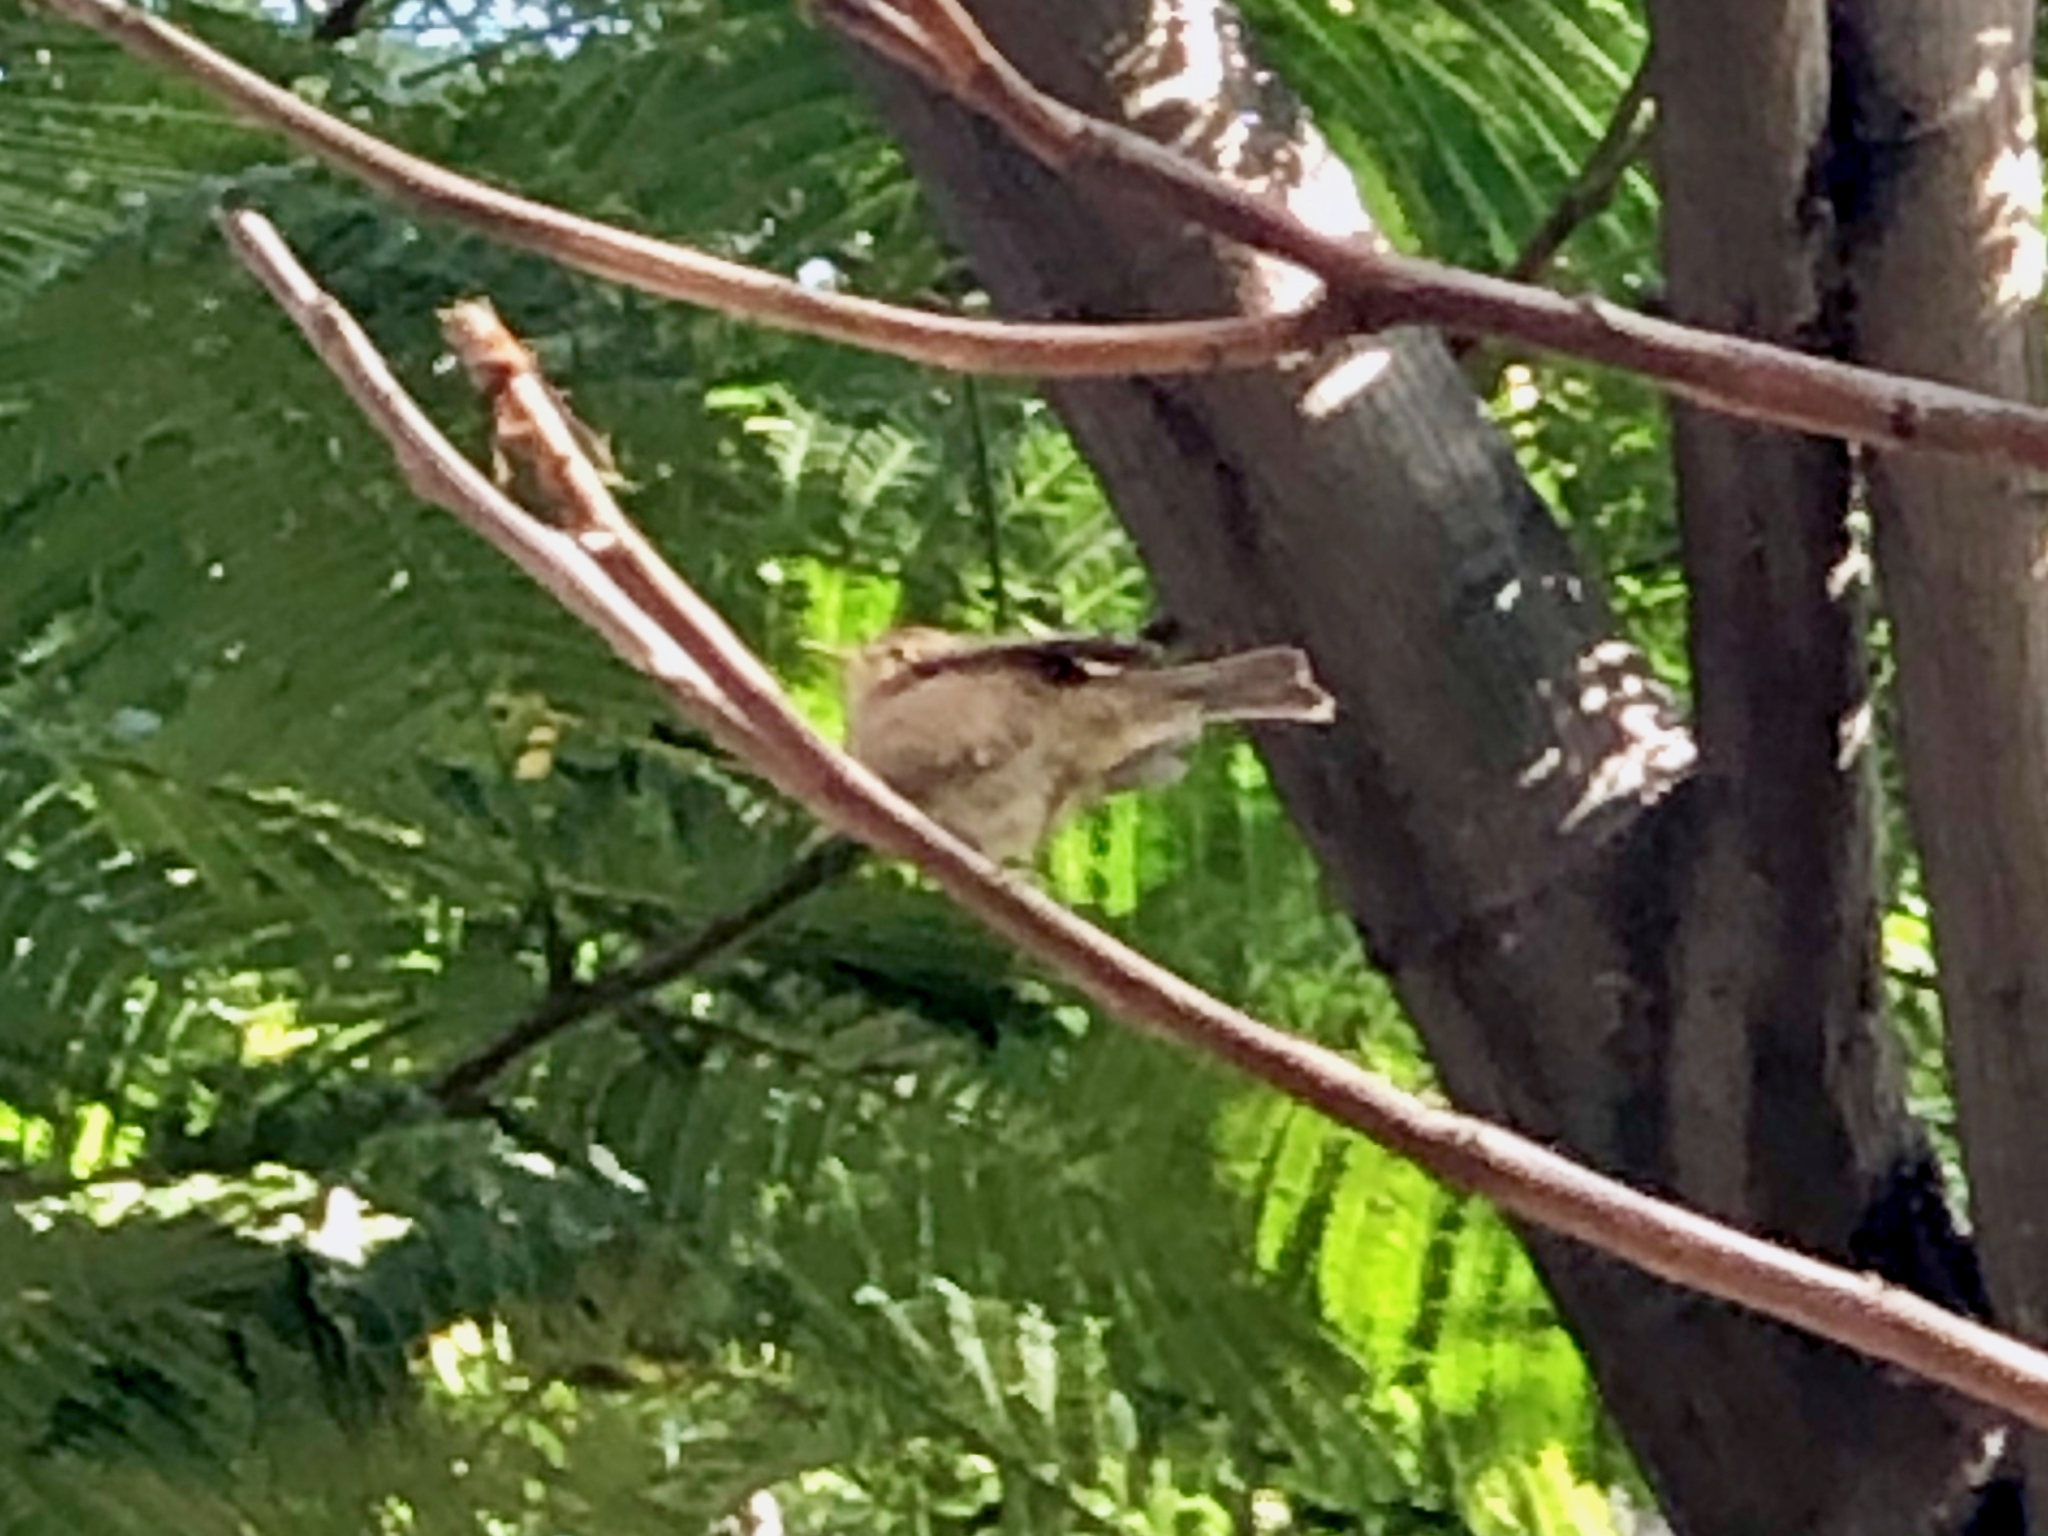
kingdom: Animalia
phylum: Chordata
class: Aves
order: Passeriformes
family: Phylloscopidae
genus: Phylloscopus
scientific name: Phylloscopus canariensis
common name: Canary islands chiffchaff
